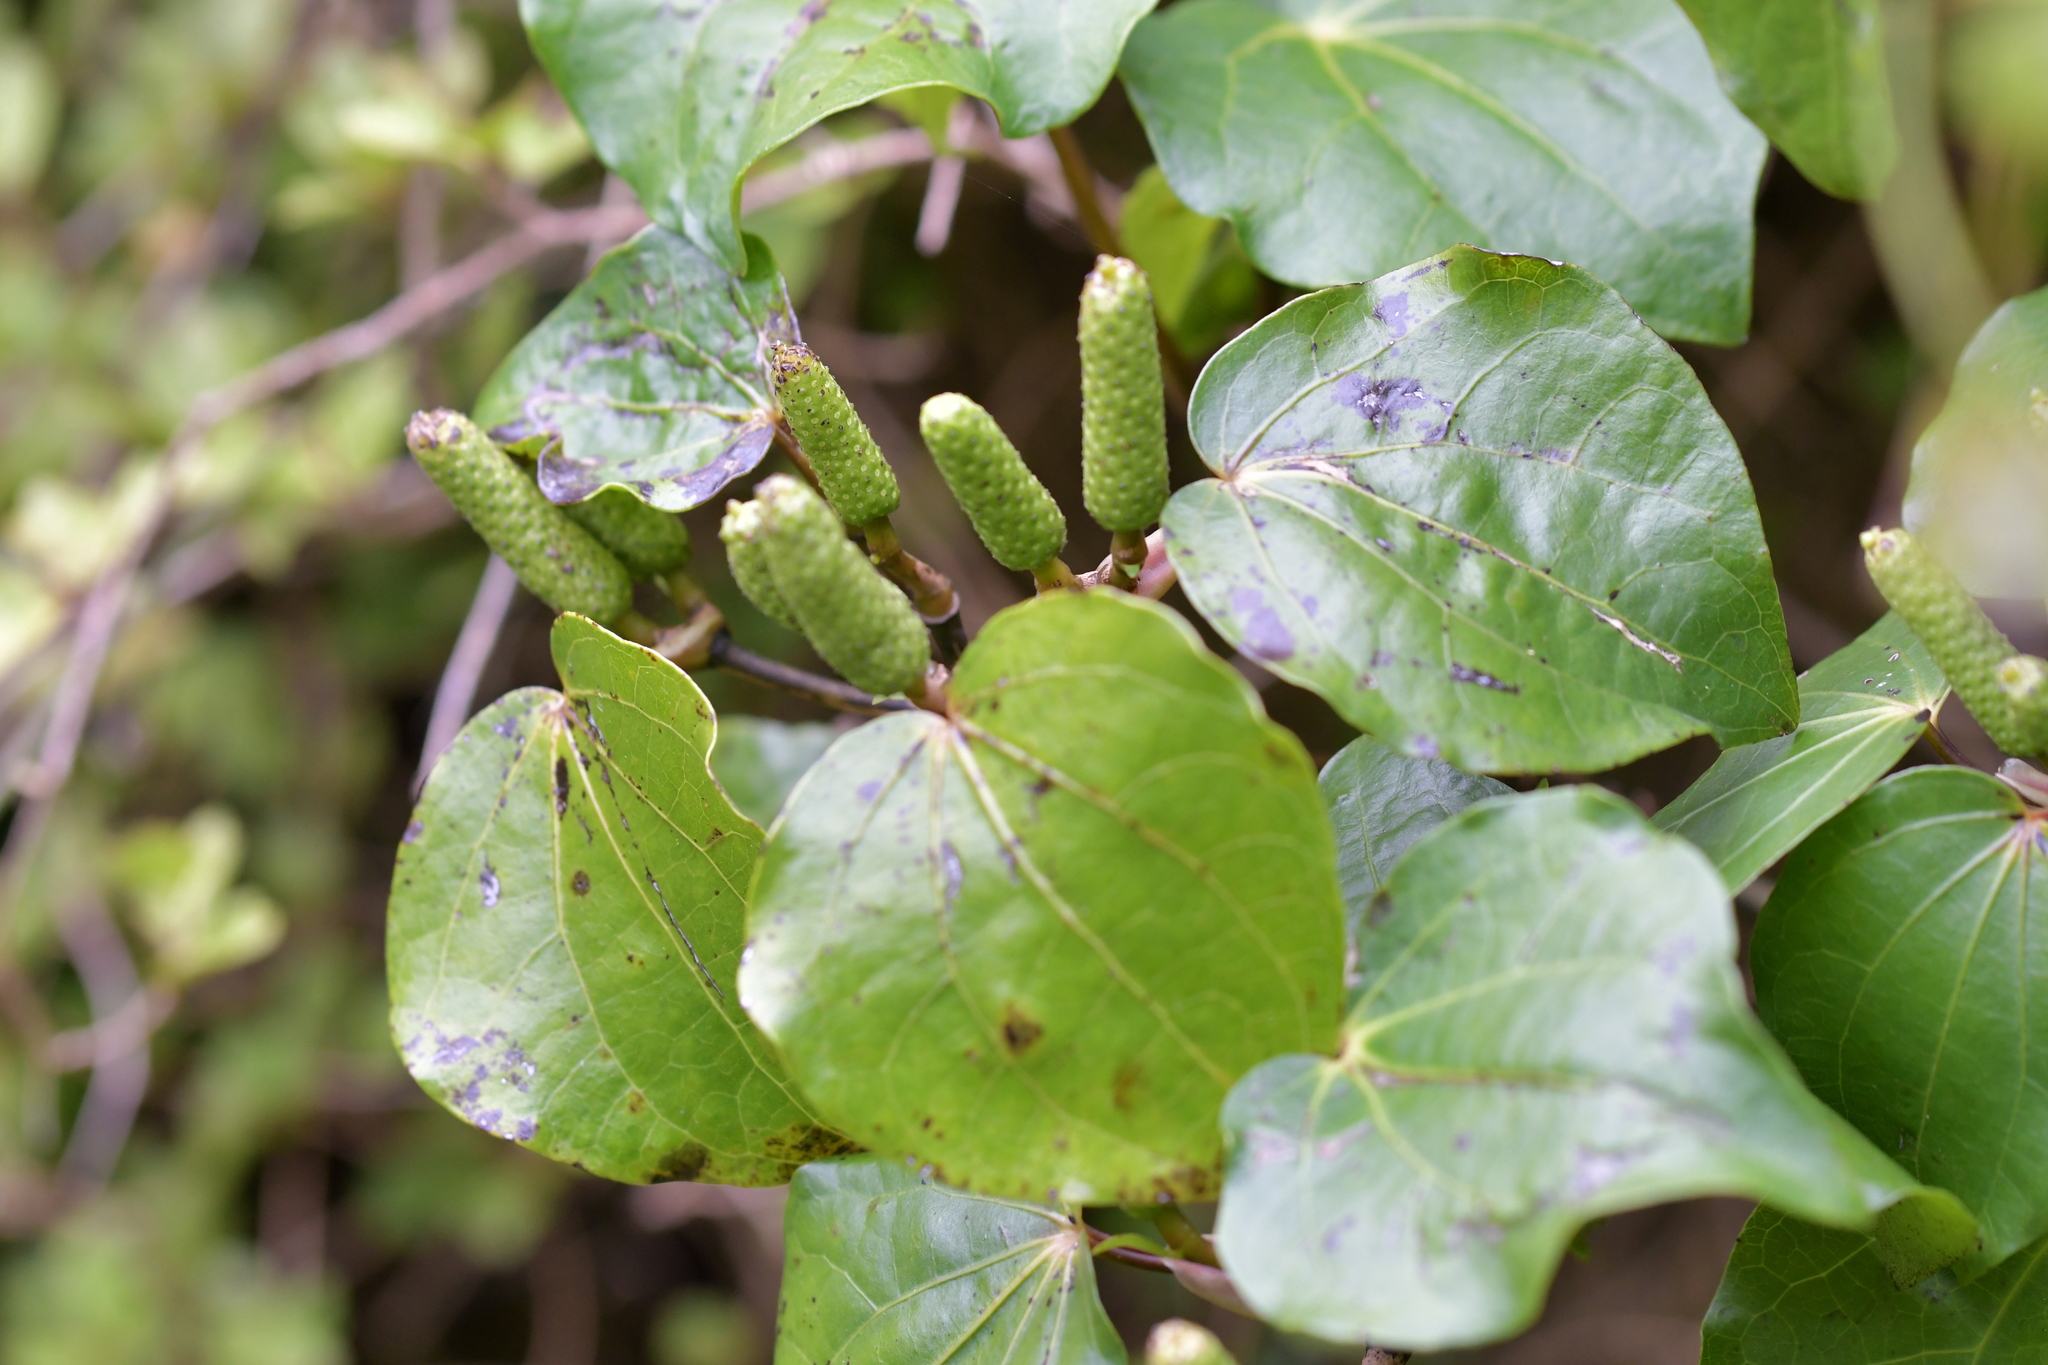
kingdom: Plantae
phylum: Tracheophyta
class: Magnoliopsida
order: Piperales
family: Piperaceae
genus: Macropiper
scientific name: Macropiper excelsum
